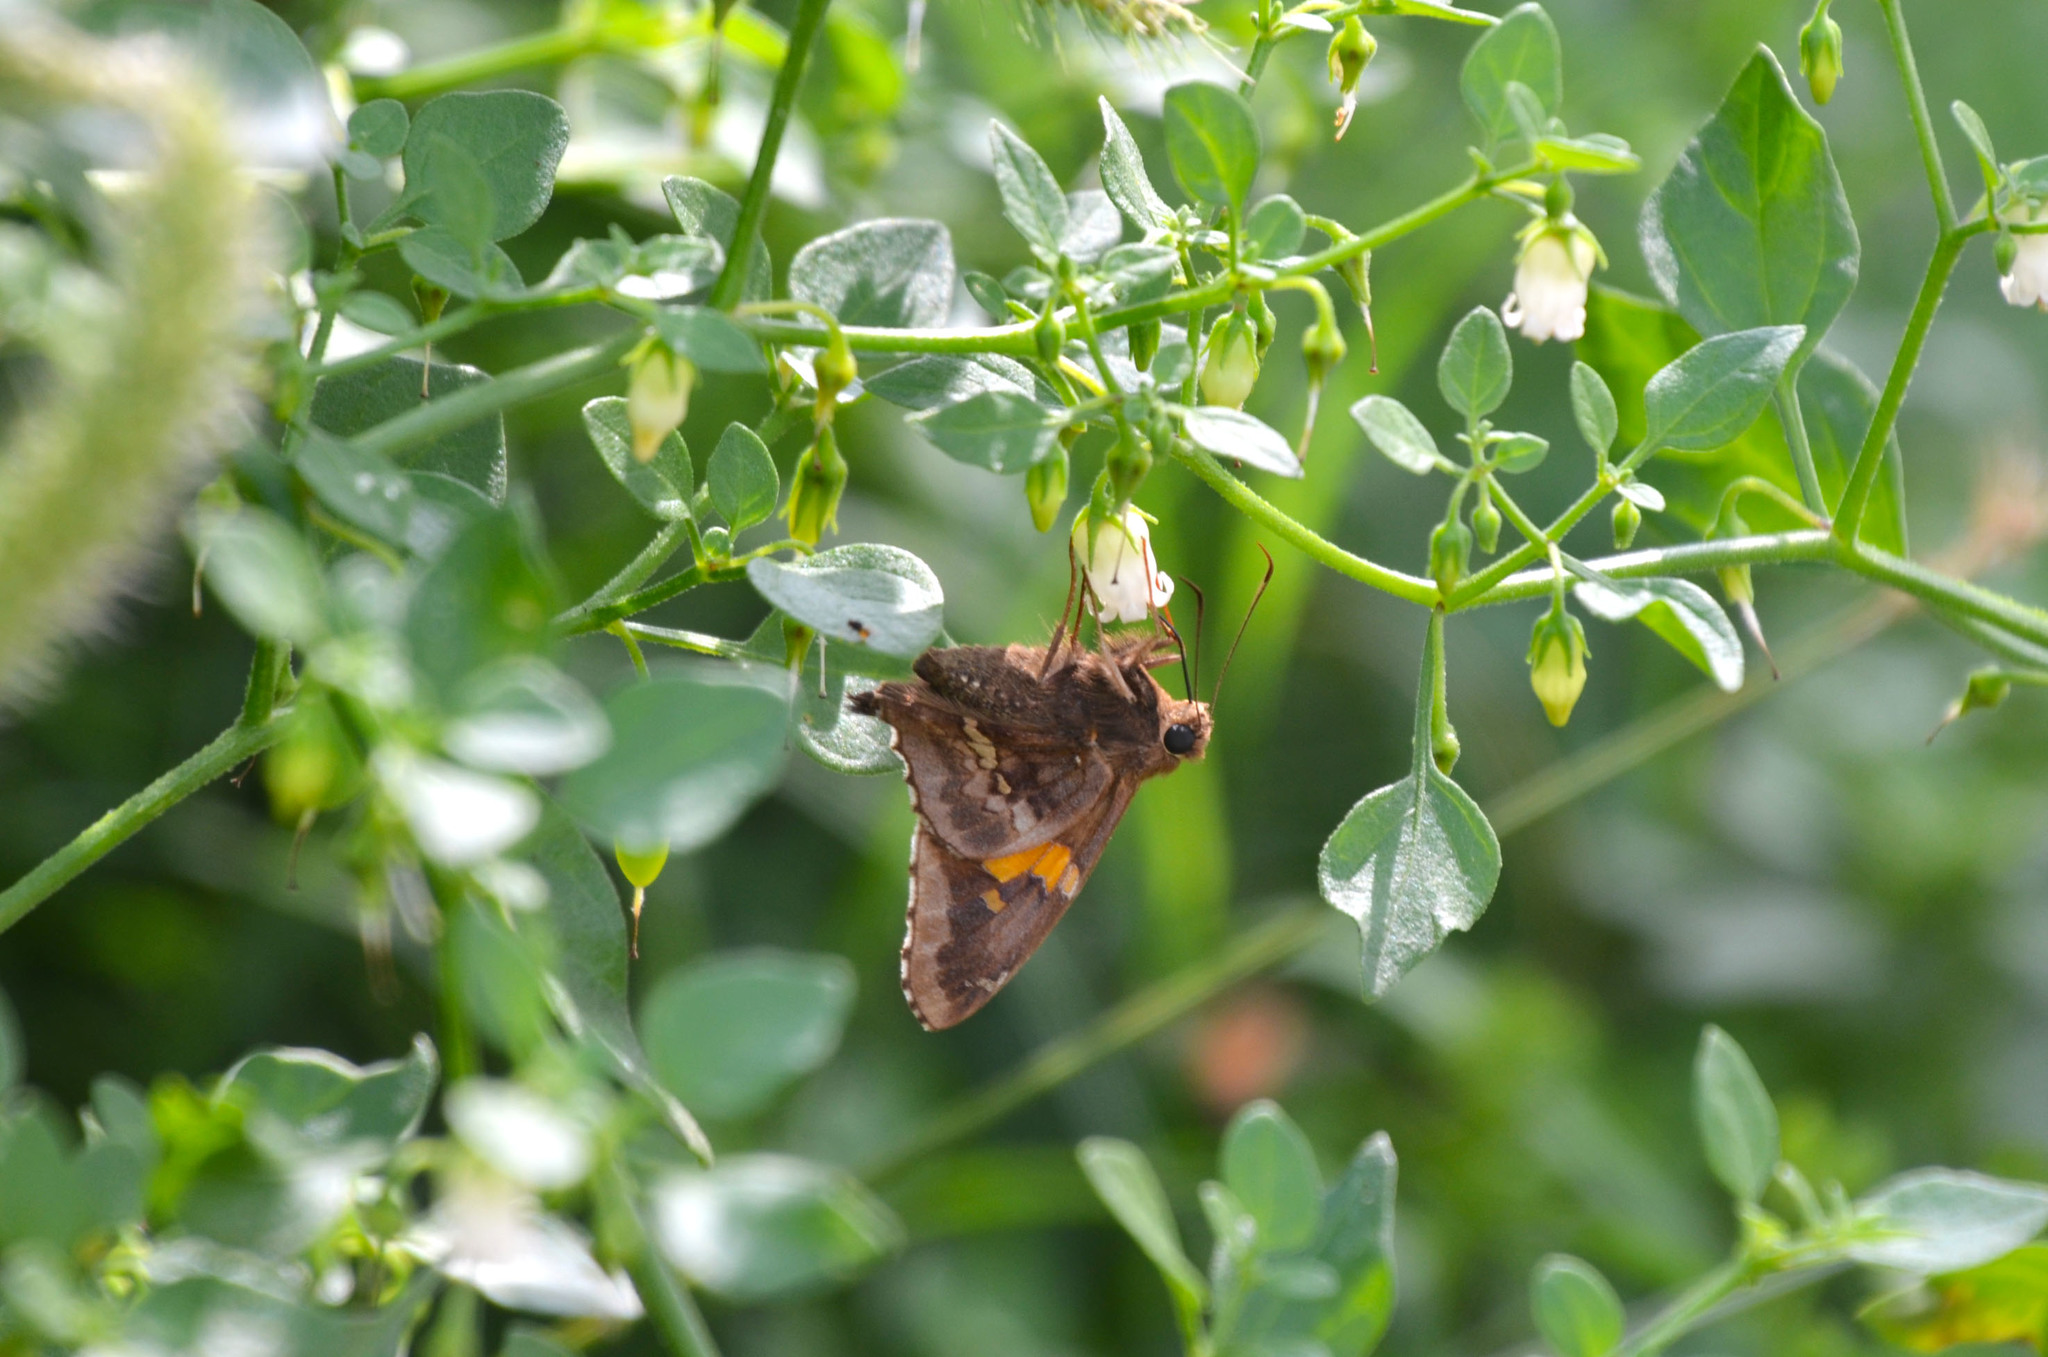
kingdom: Animalia
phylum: Arthropoda
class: Insecta
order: Lepidoptera
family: Hesperiidae
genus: Epargyreus
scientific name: Epargyreus tmolis
